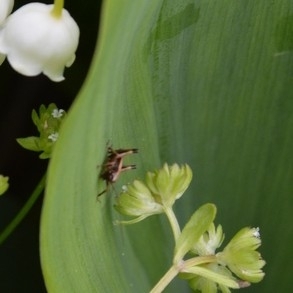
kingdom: Animalia
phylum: Arthropoda
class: Insecta
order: Orthoptera
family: Tettigoniidae
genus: Pholidoptera
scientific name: Pholidoptera griseoaptera
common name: Dark bush-cricket
